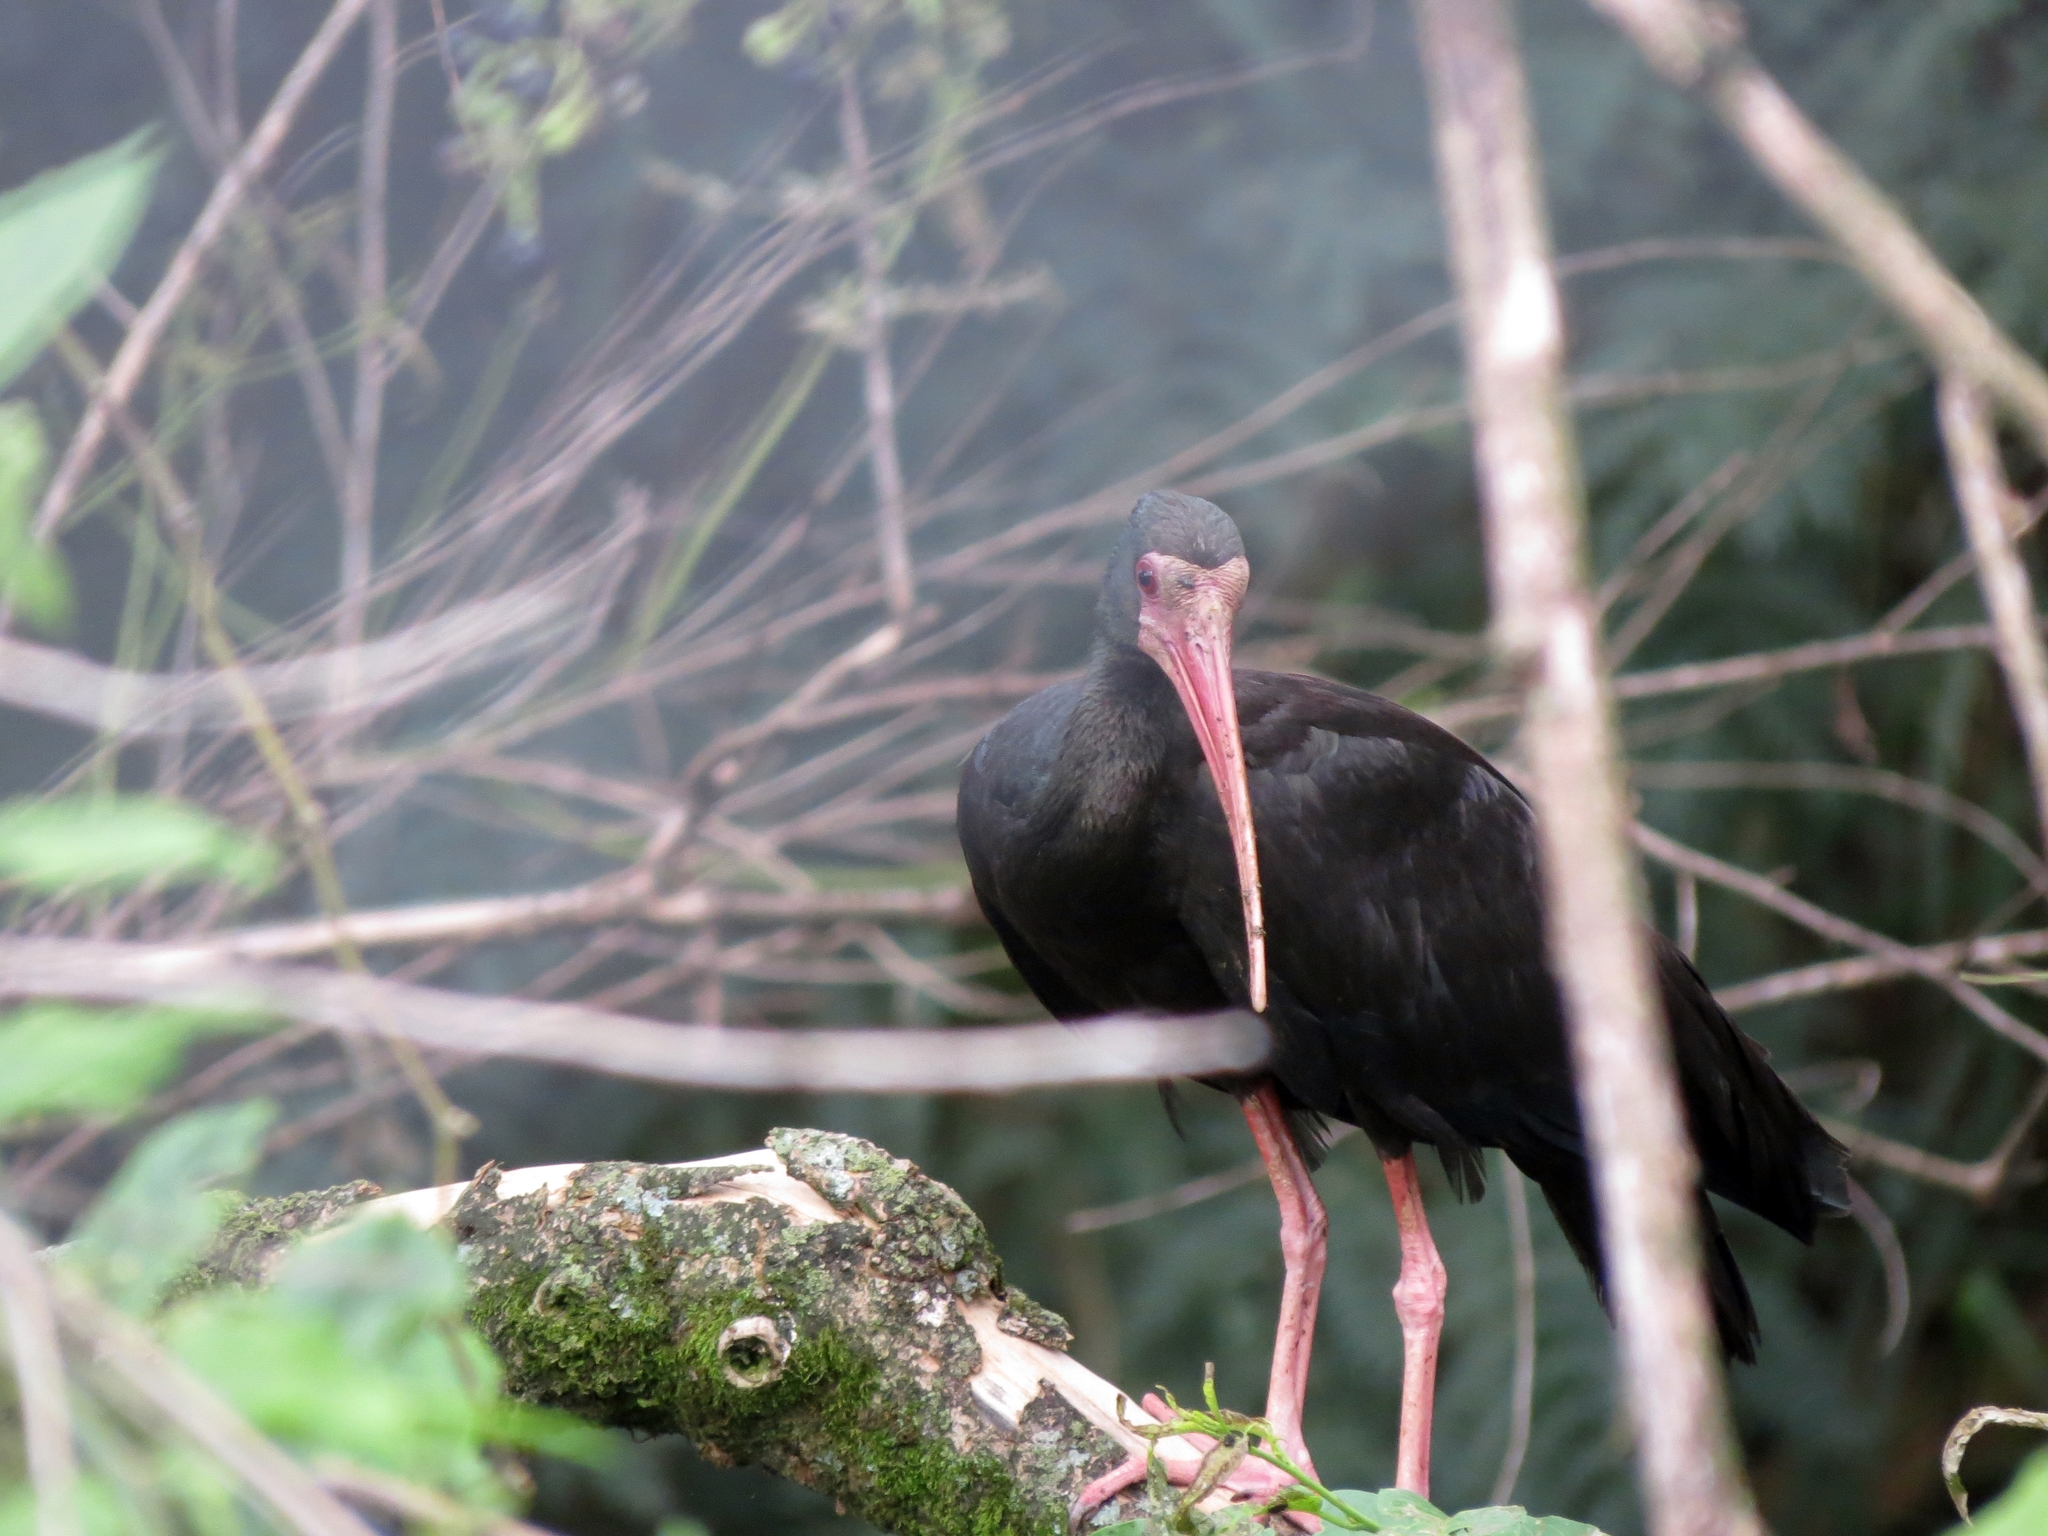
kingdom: Animalia
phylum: Chordata
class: Aves
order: Pelecaniformes
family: Threskiornithidae
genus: Phimosus
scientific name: Phimosus infuscatus
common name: Bare-faced ibis
